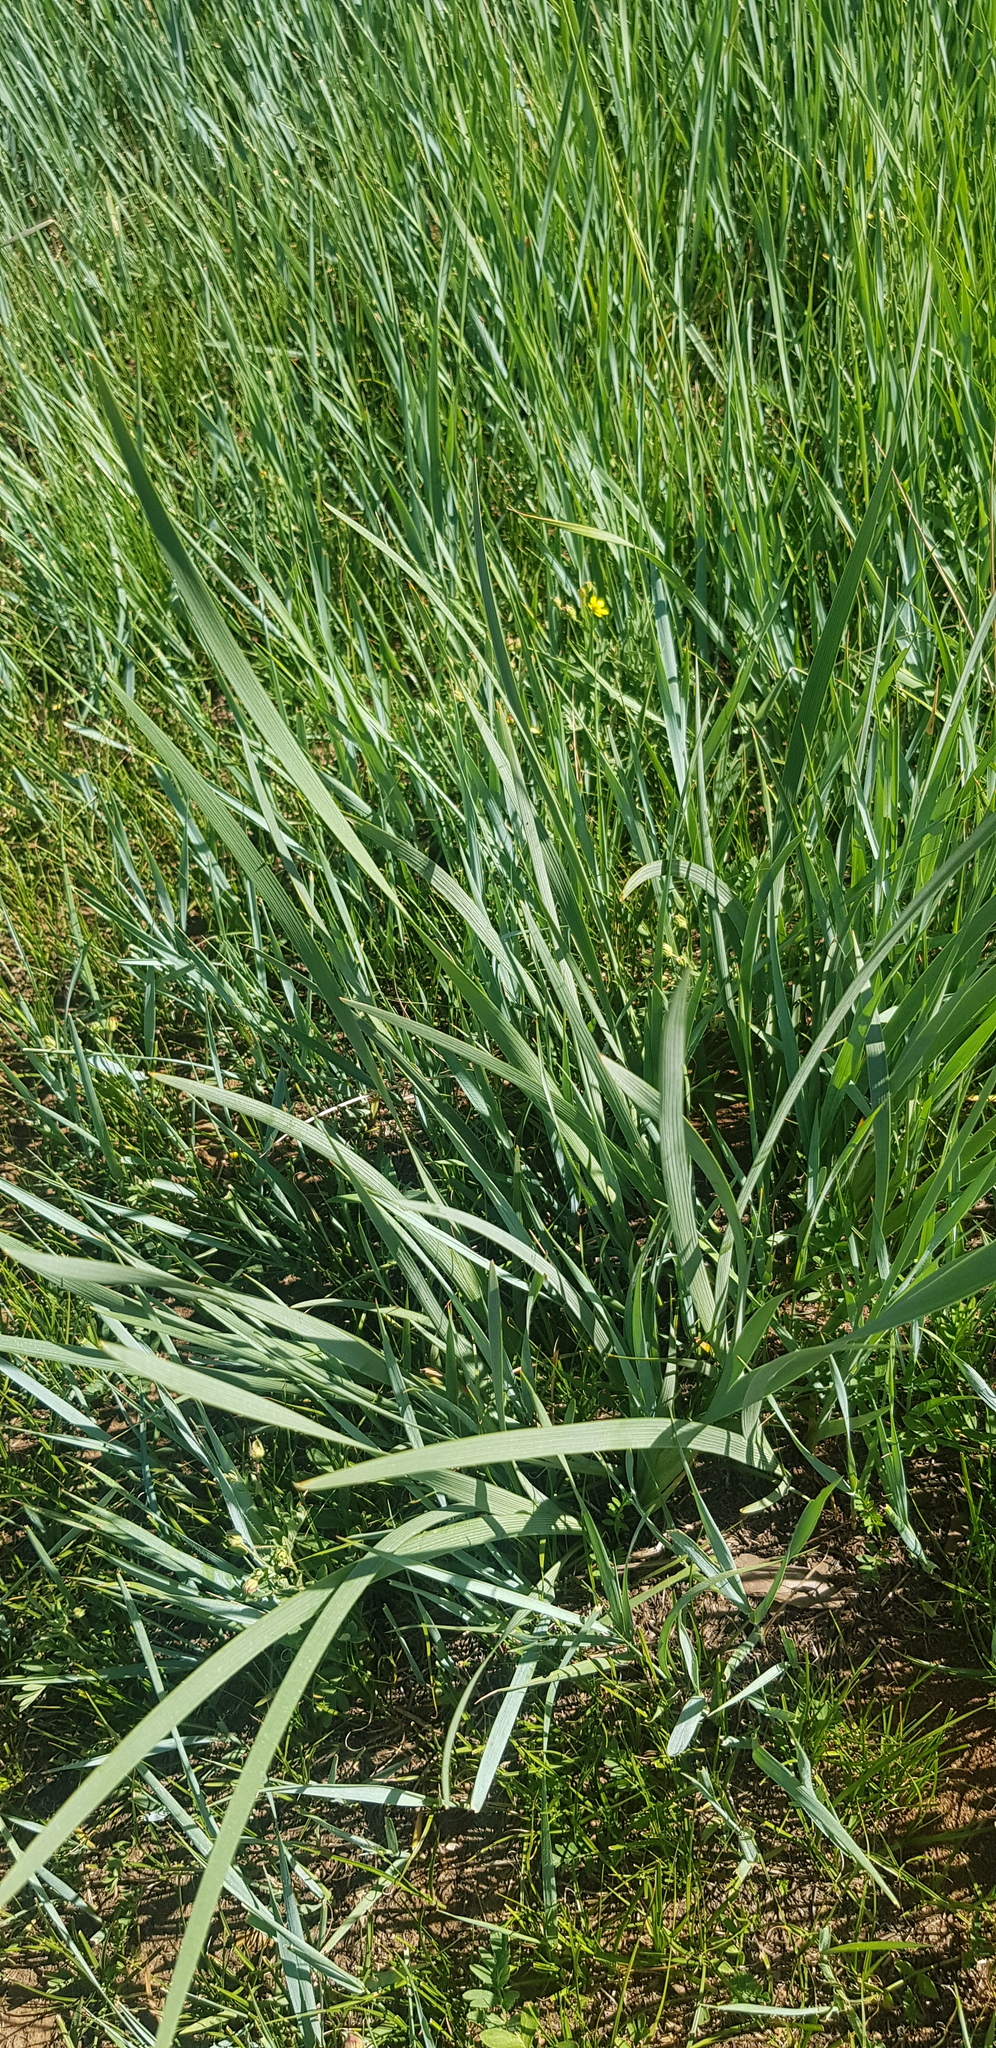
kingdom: Plantae
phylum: Tracheophyta
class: Liliopsida
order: Poales
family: Poaceae
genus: Leymus
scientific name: Leymus chinensis
